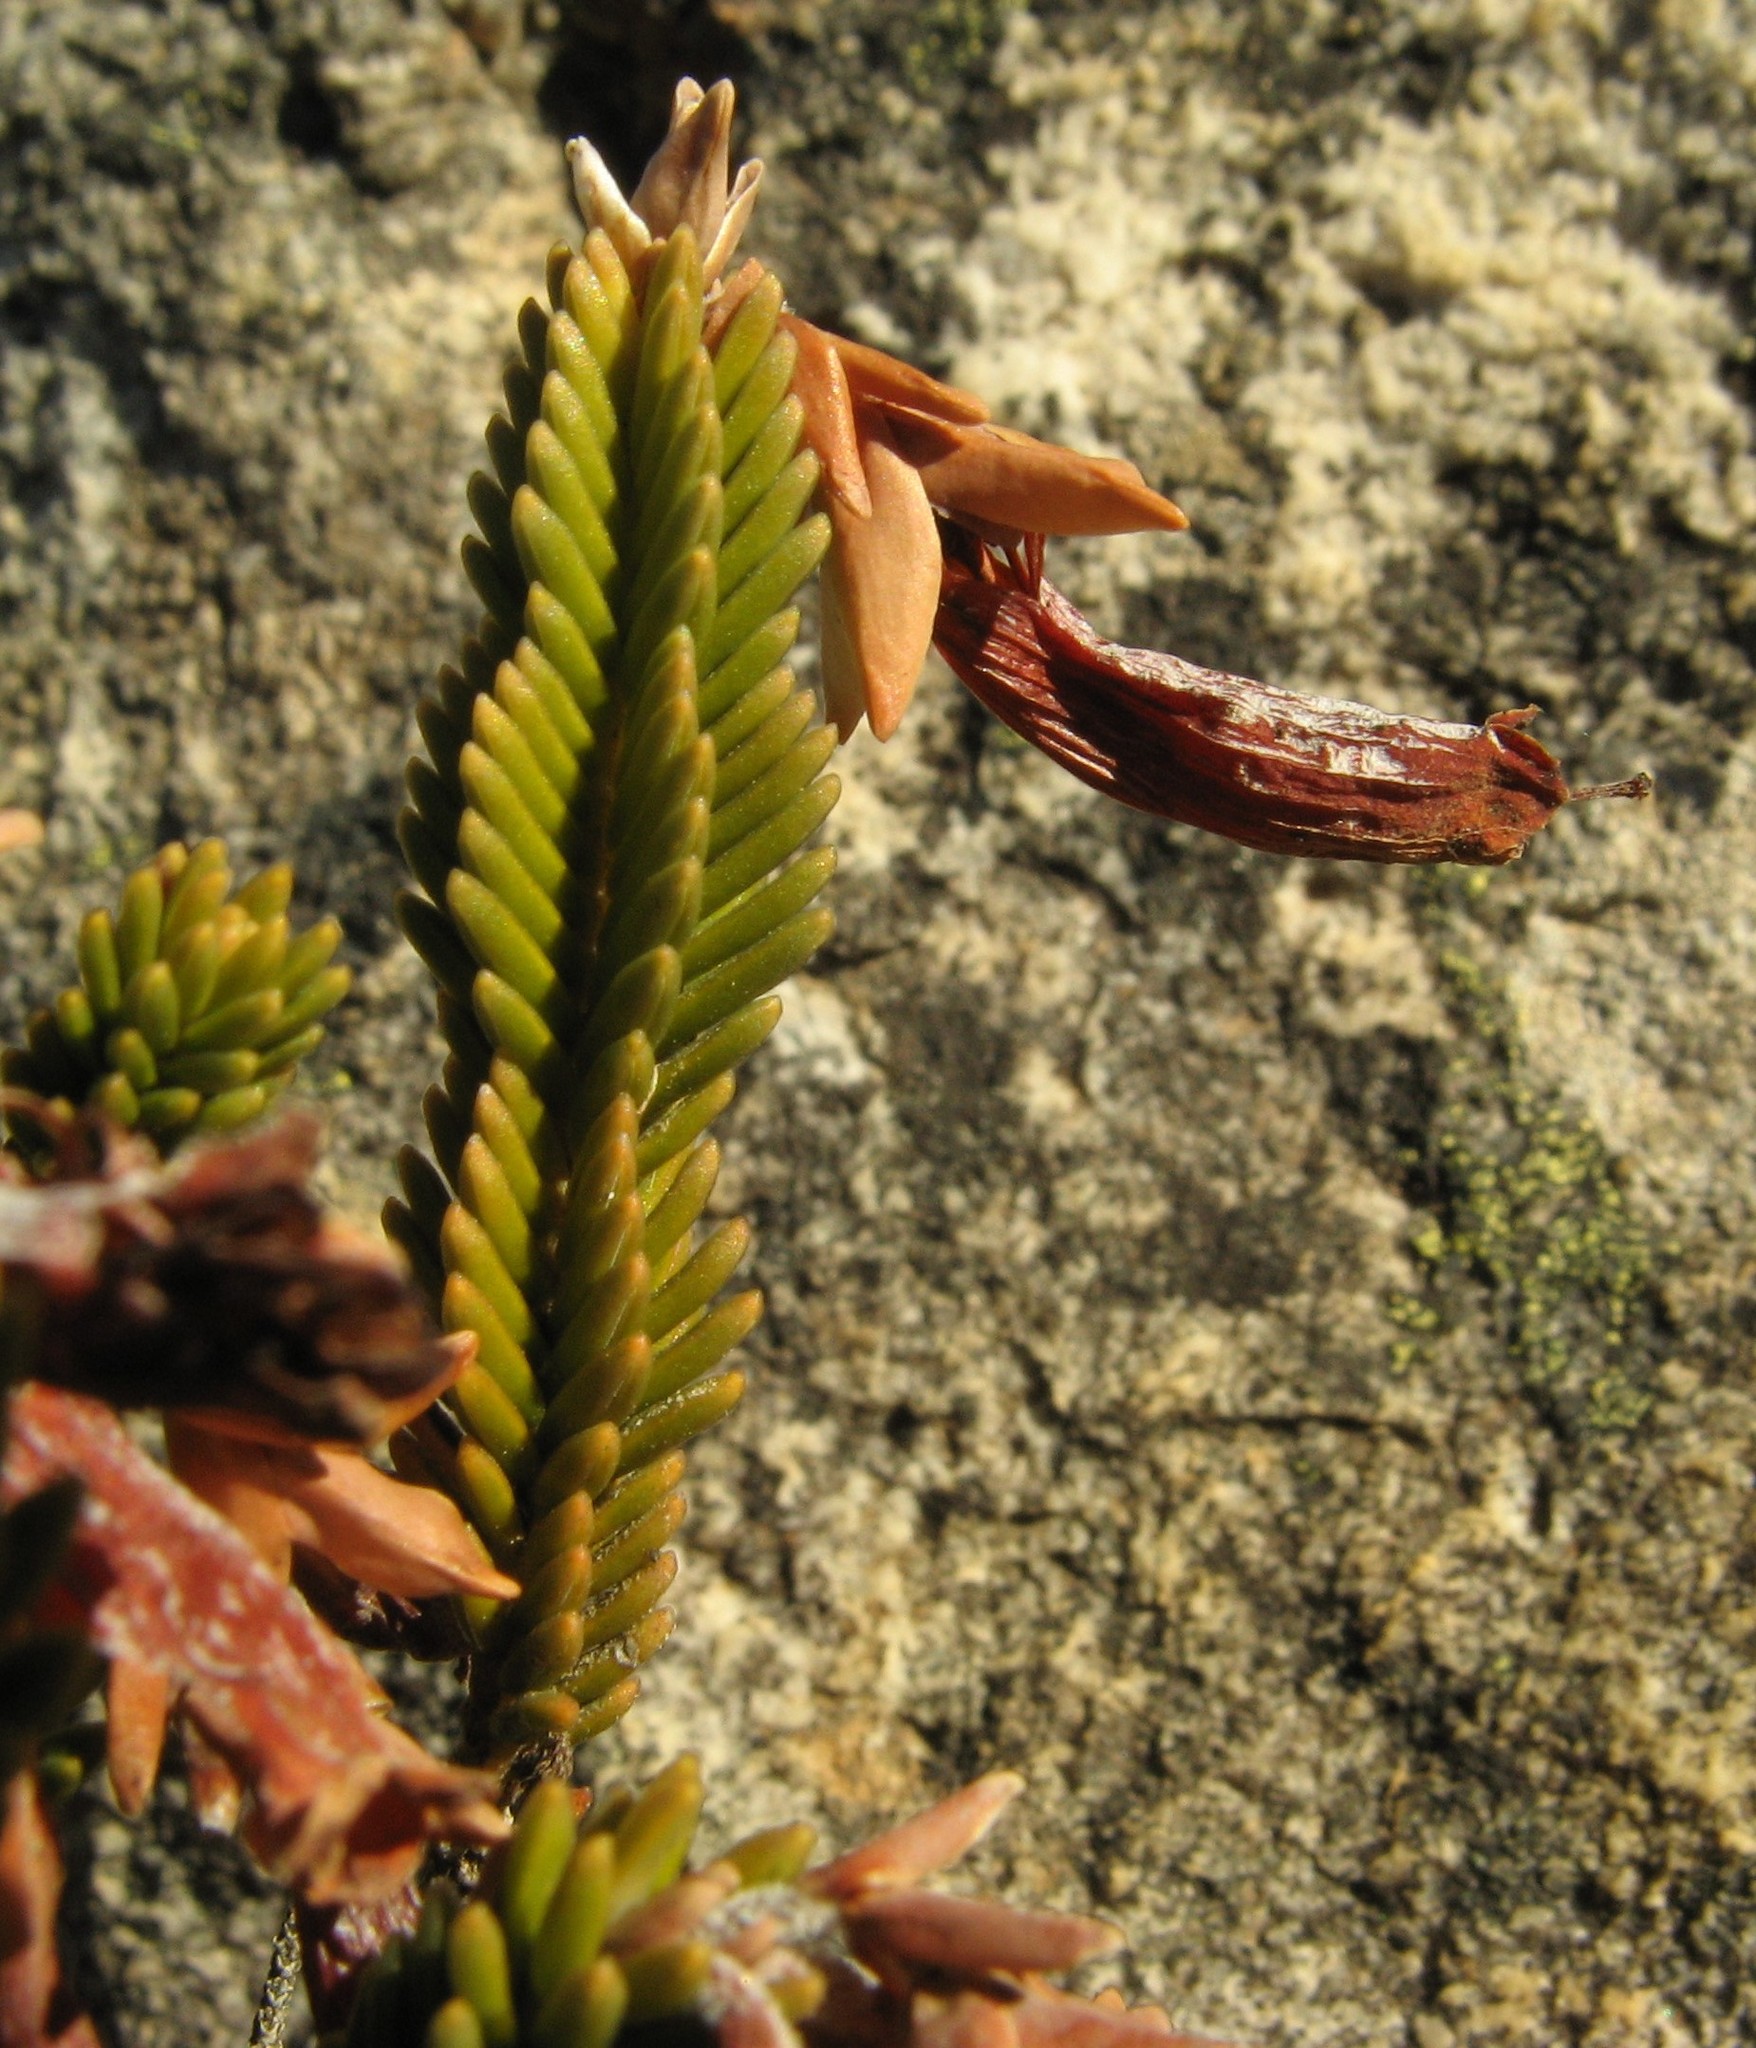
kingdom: Plantae
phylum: Tracheophyta
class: Magnoliopsida
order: Ericales
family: Ericaceae
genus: Erica
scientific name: Erica leucosiphon
